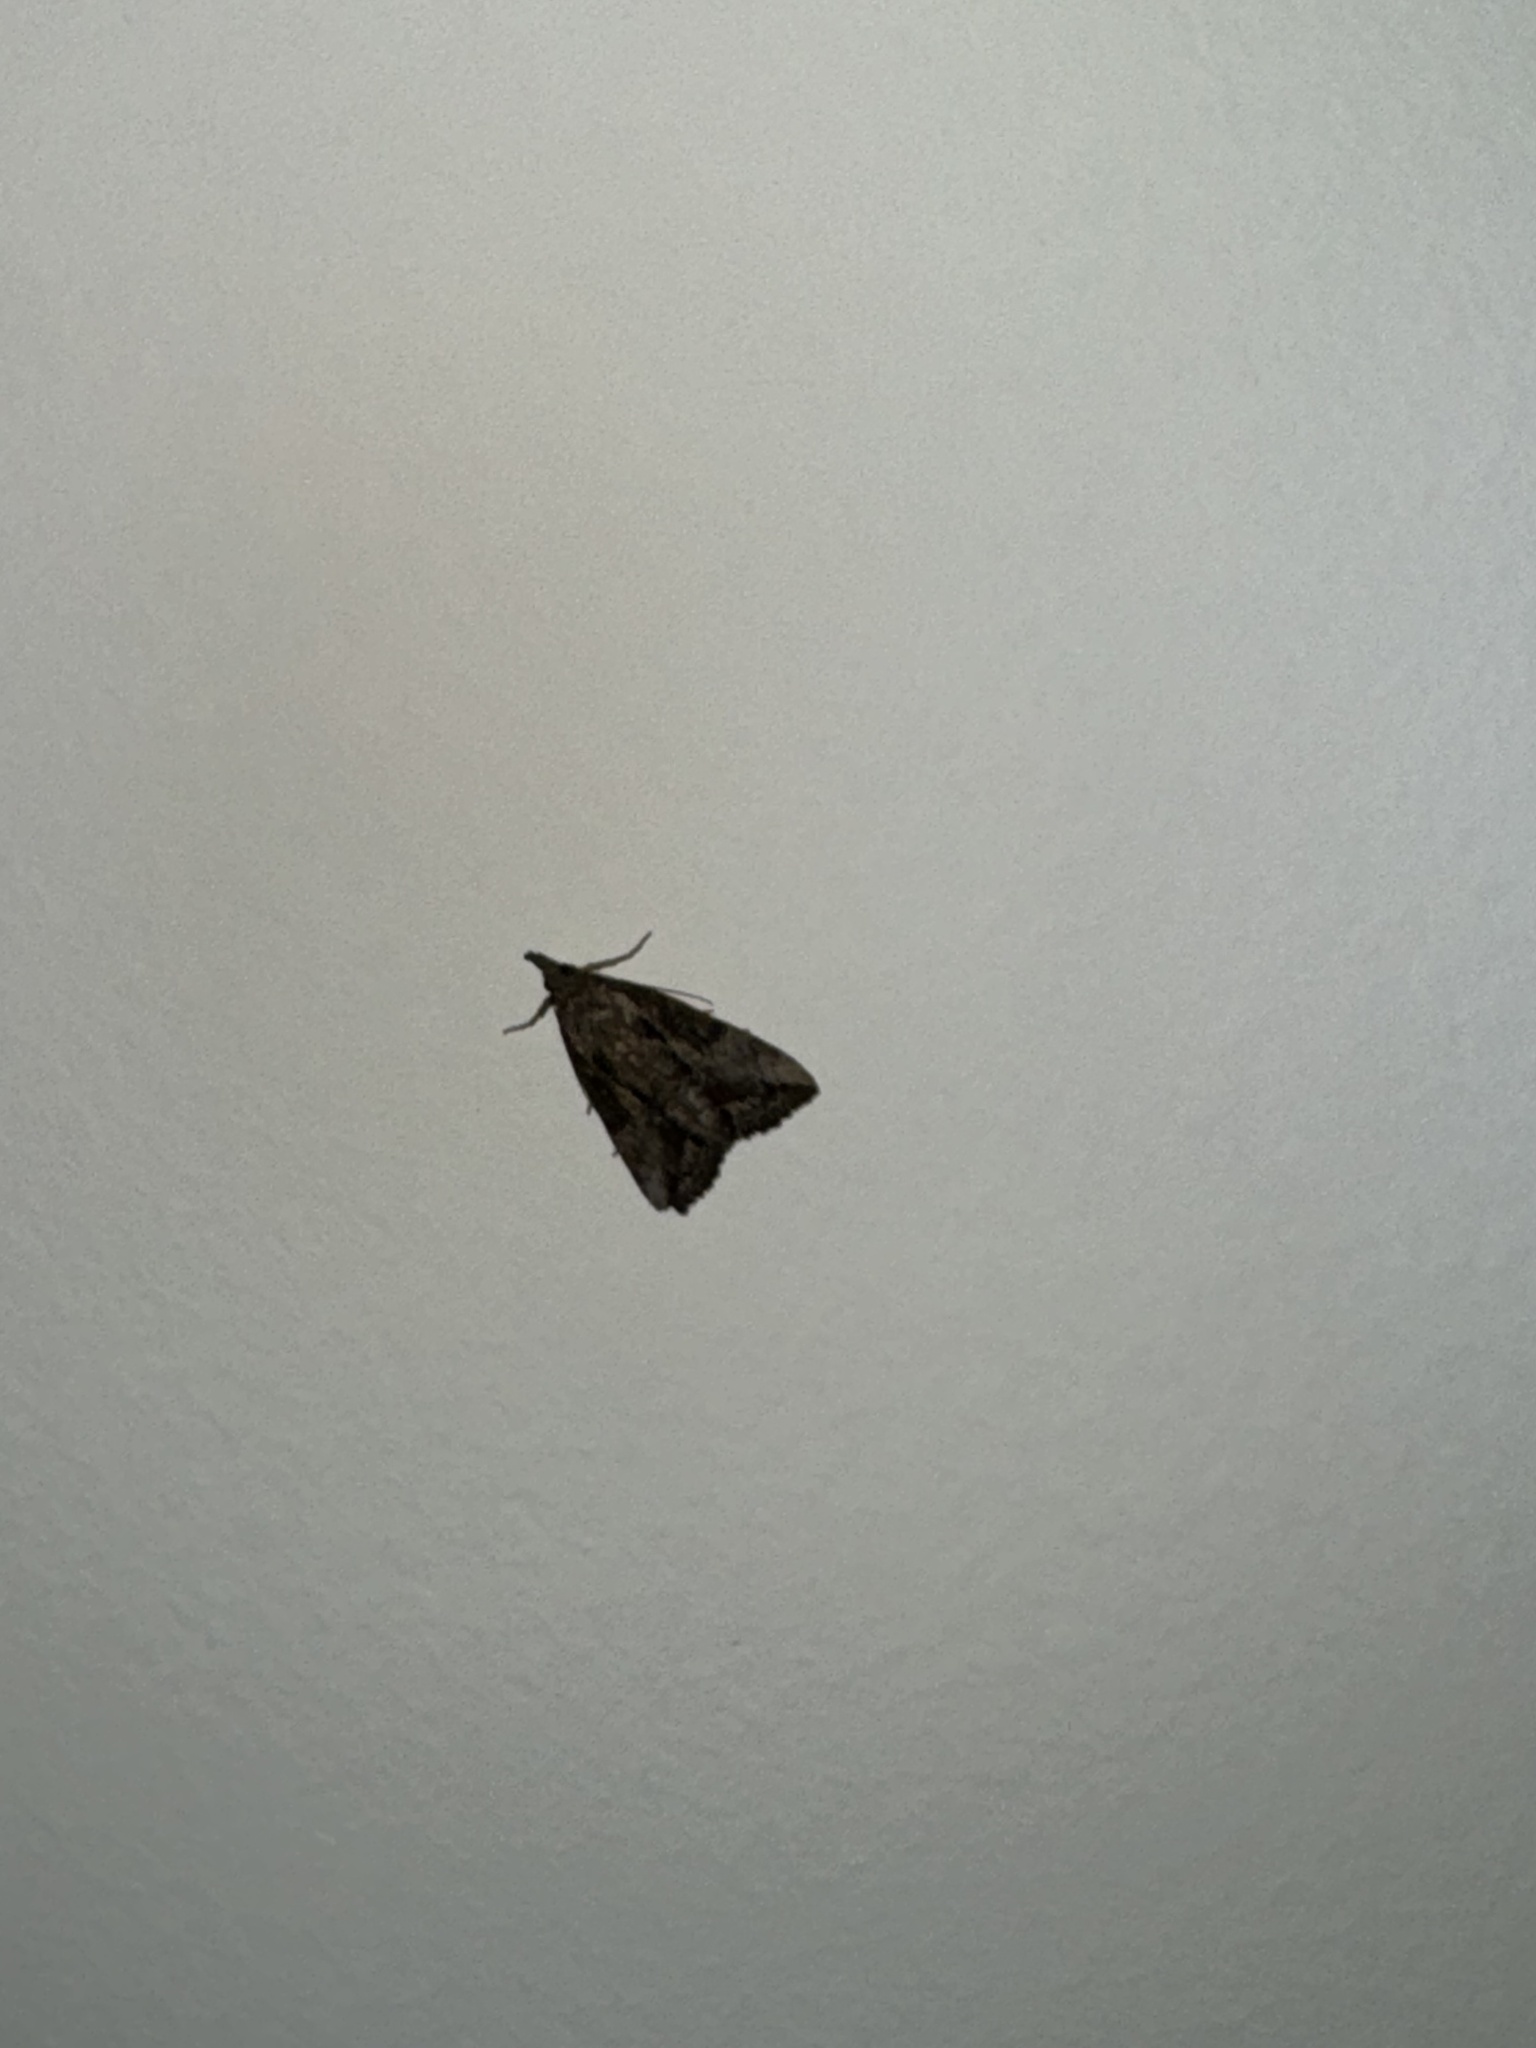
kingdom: Animalia
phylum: Arthropoda
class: Insecta
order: Lepidoptera
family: Erebidae
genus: Hypena
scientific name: Hypena scabra
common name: Green cloverworm
